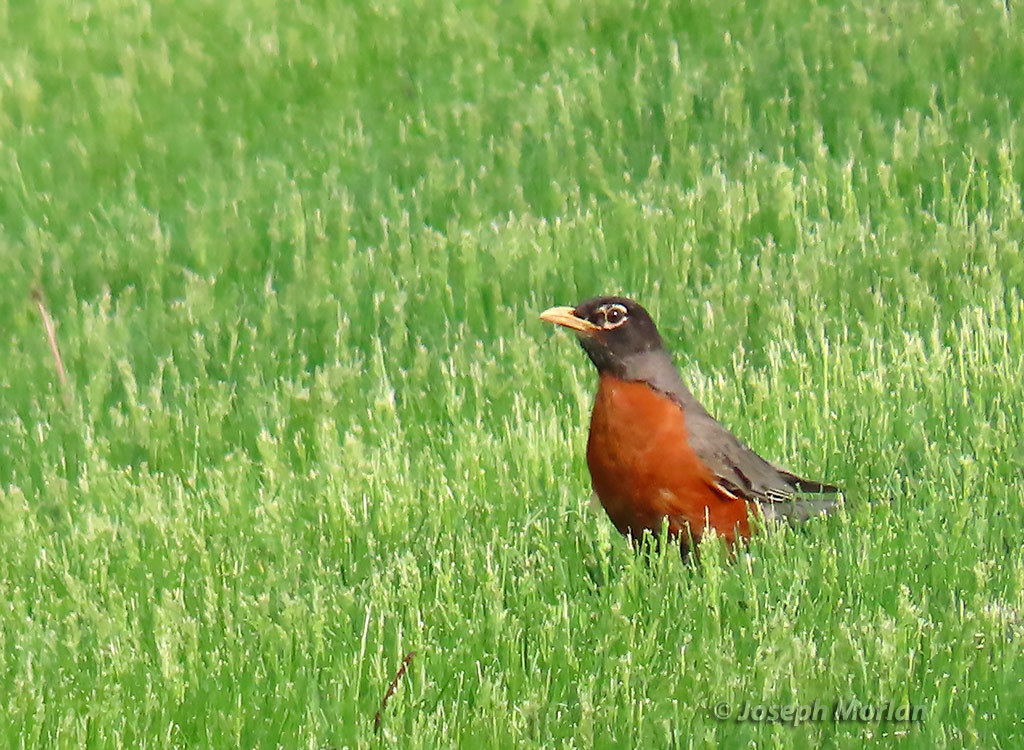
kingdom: Animalia
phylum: Chordata
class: Aves
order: Passeriformes
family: Turdidae
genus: Turdus
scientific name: Turdus migratorius
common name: American robin
